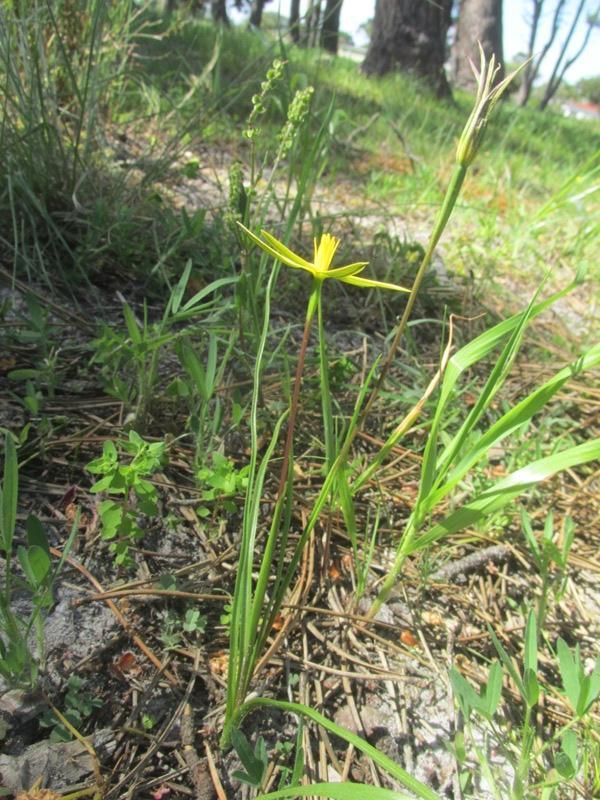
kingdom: Plantae
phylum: Tracheophyta
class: Liliopsida
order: Asparagales
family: Hypoxidaceae
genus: Pauridia
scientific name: Pauridia capensis
